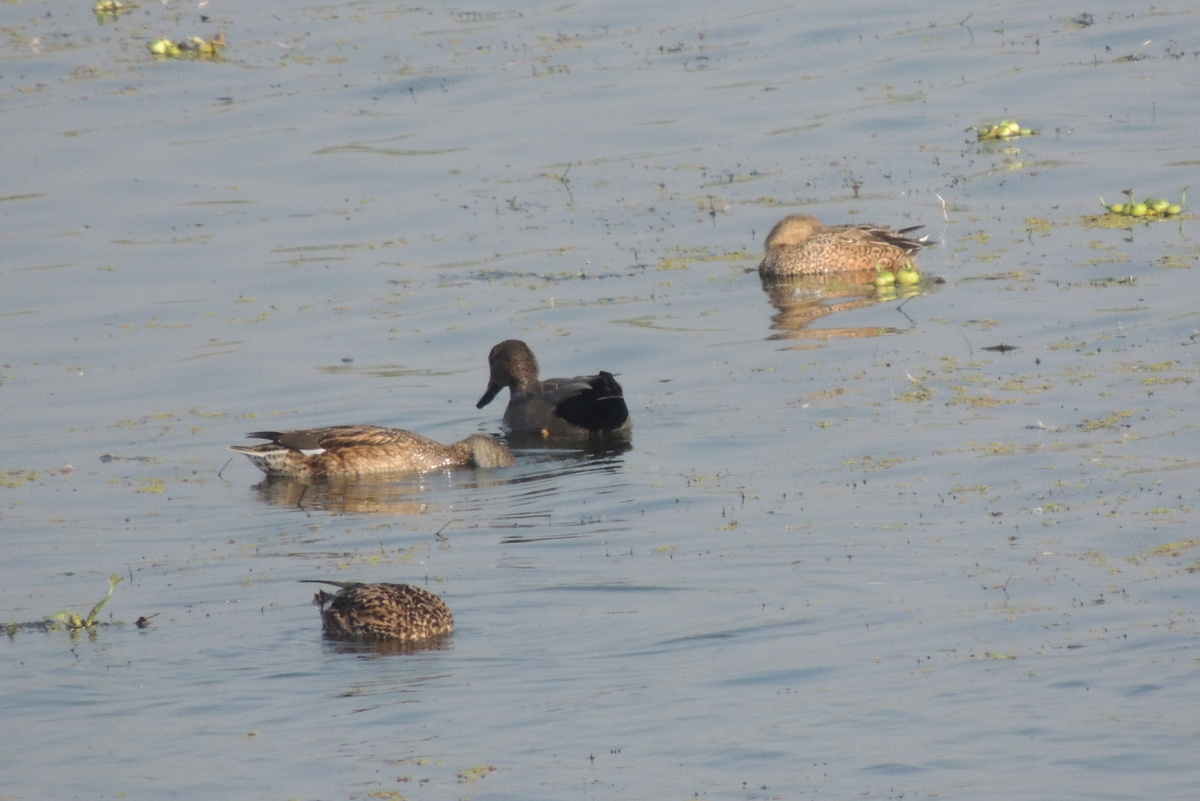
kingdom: Animalia
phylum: Chordata
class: Aves
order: Anseriformes
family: Anatidae
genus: Mareca
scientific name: Mareca strepera
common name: Gadwall
